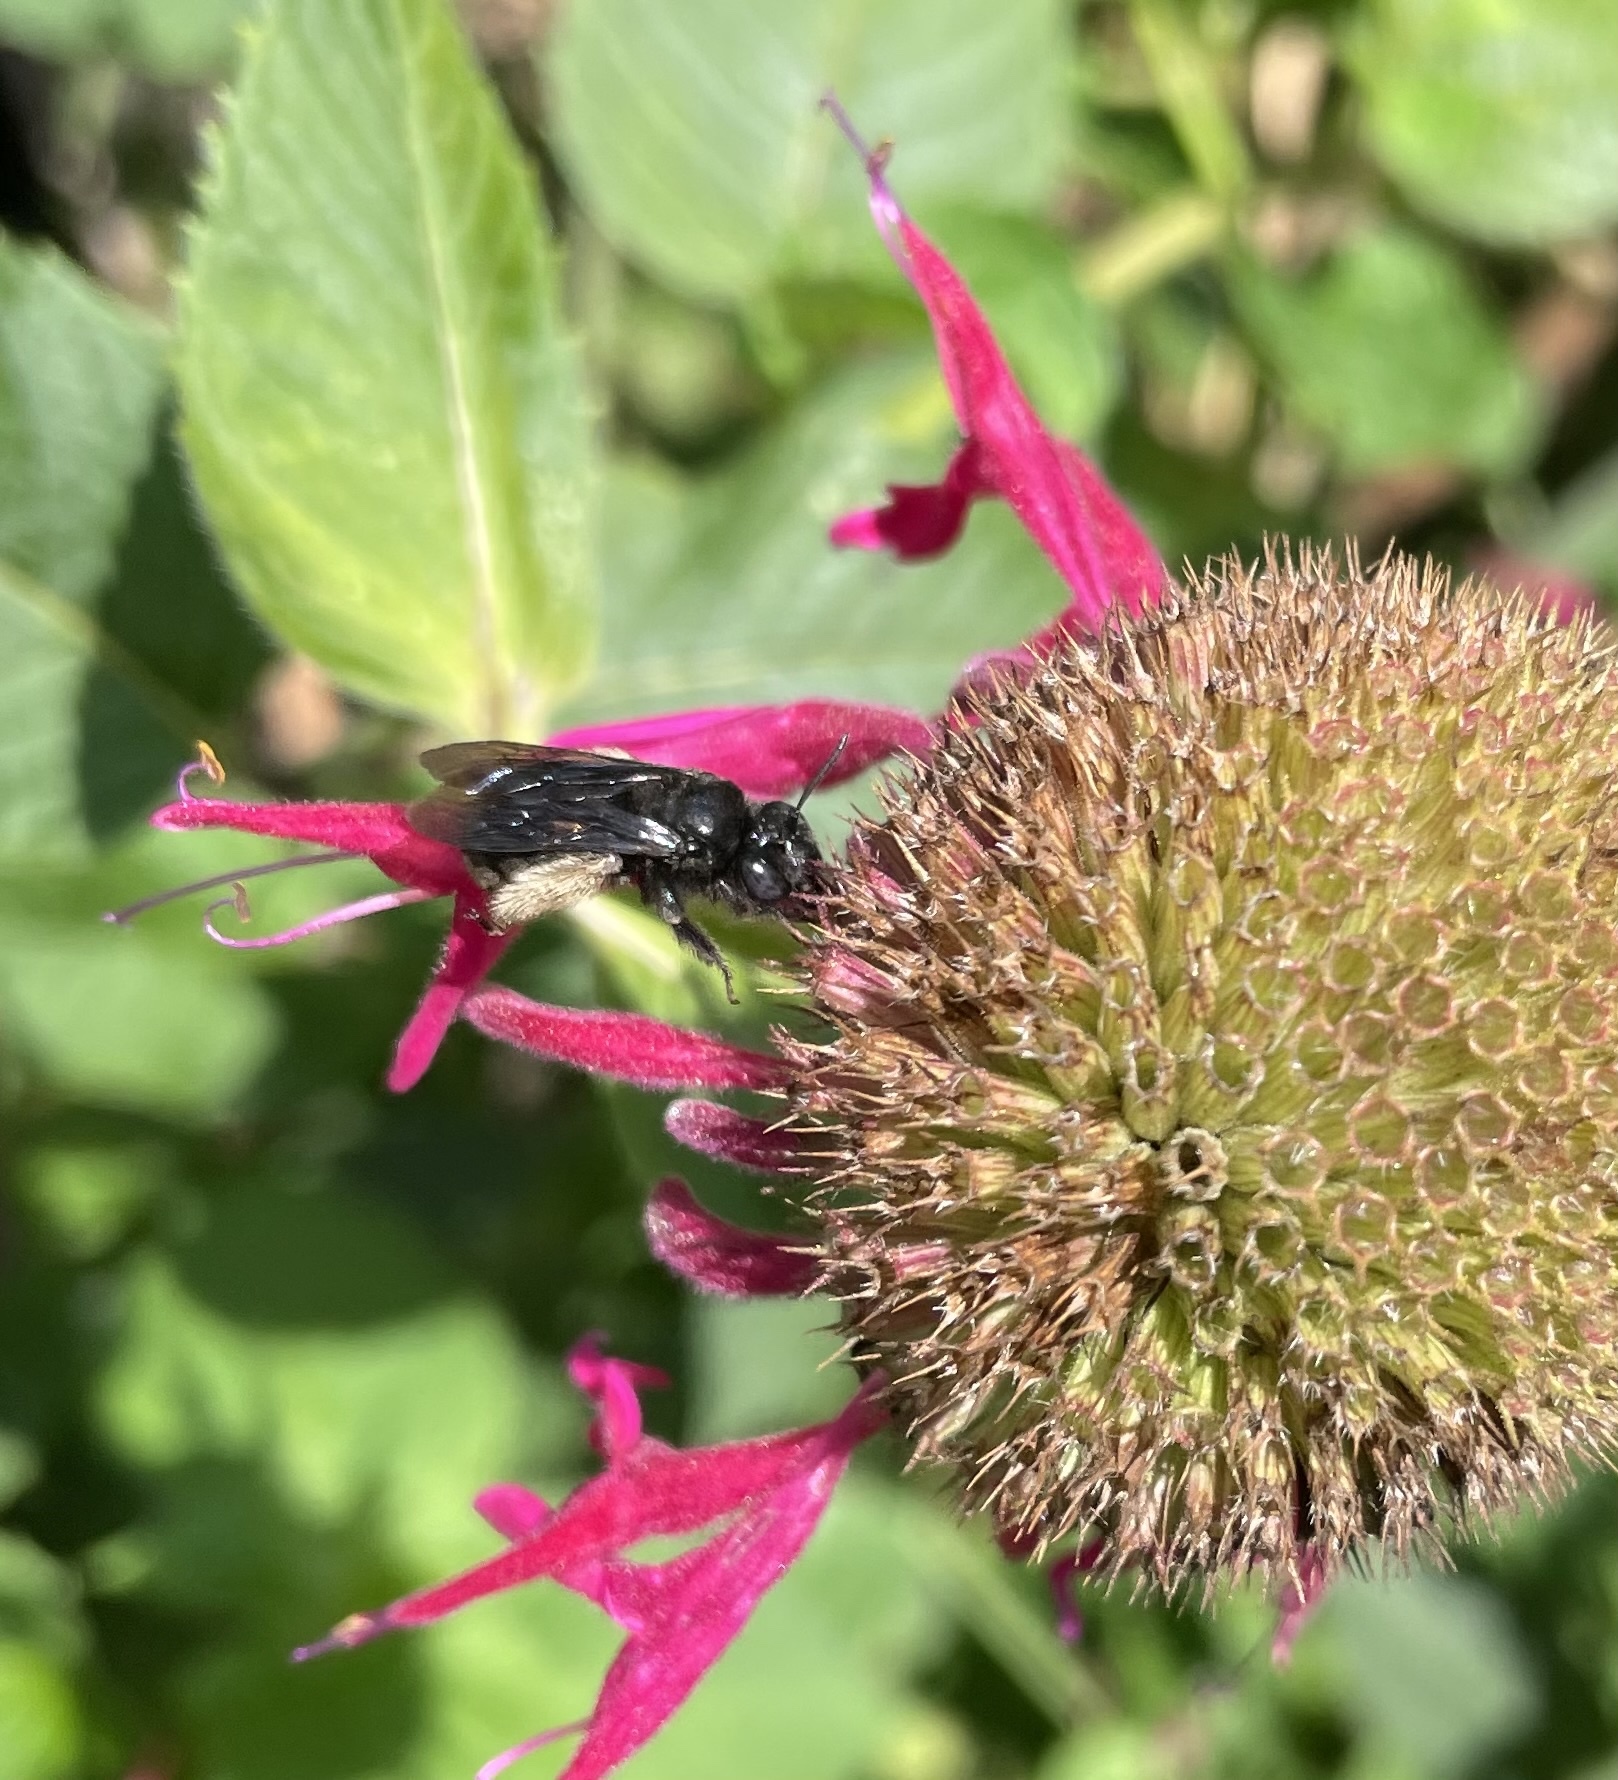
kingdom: Animalia
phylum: Arthropoda
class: Insecta
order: Hymenoptera
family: Apidae
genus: Melissodes
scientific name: Melissodes bimaculatus
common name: Two-spotted long-horned bee
